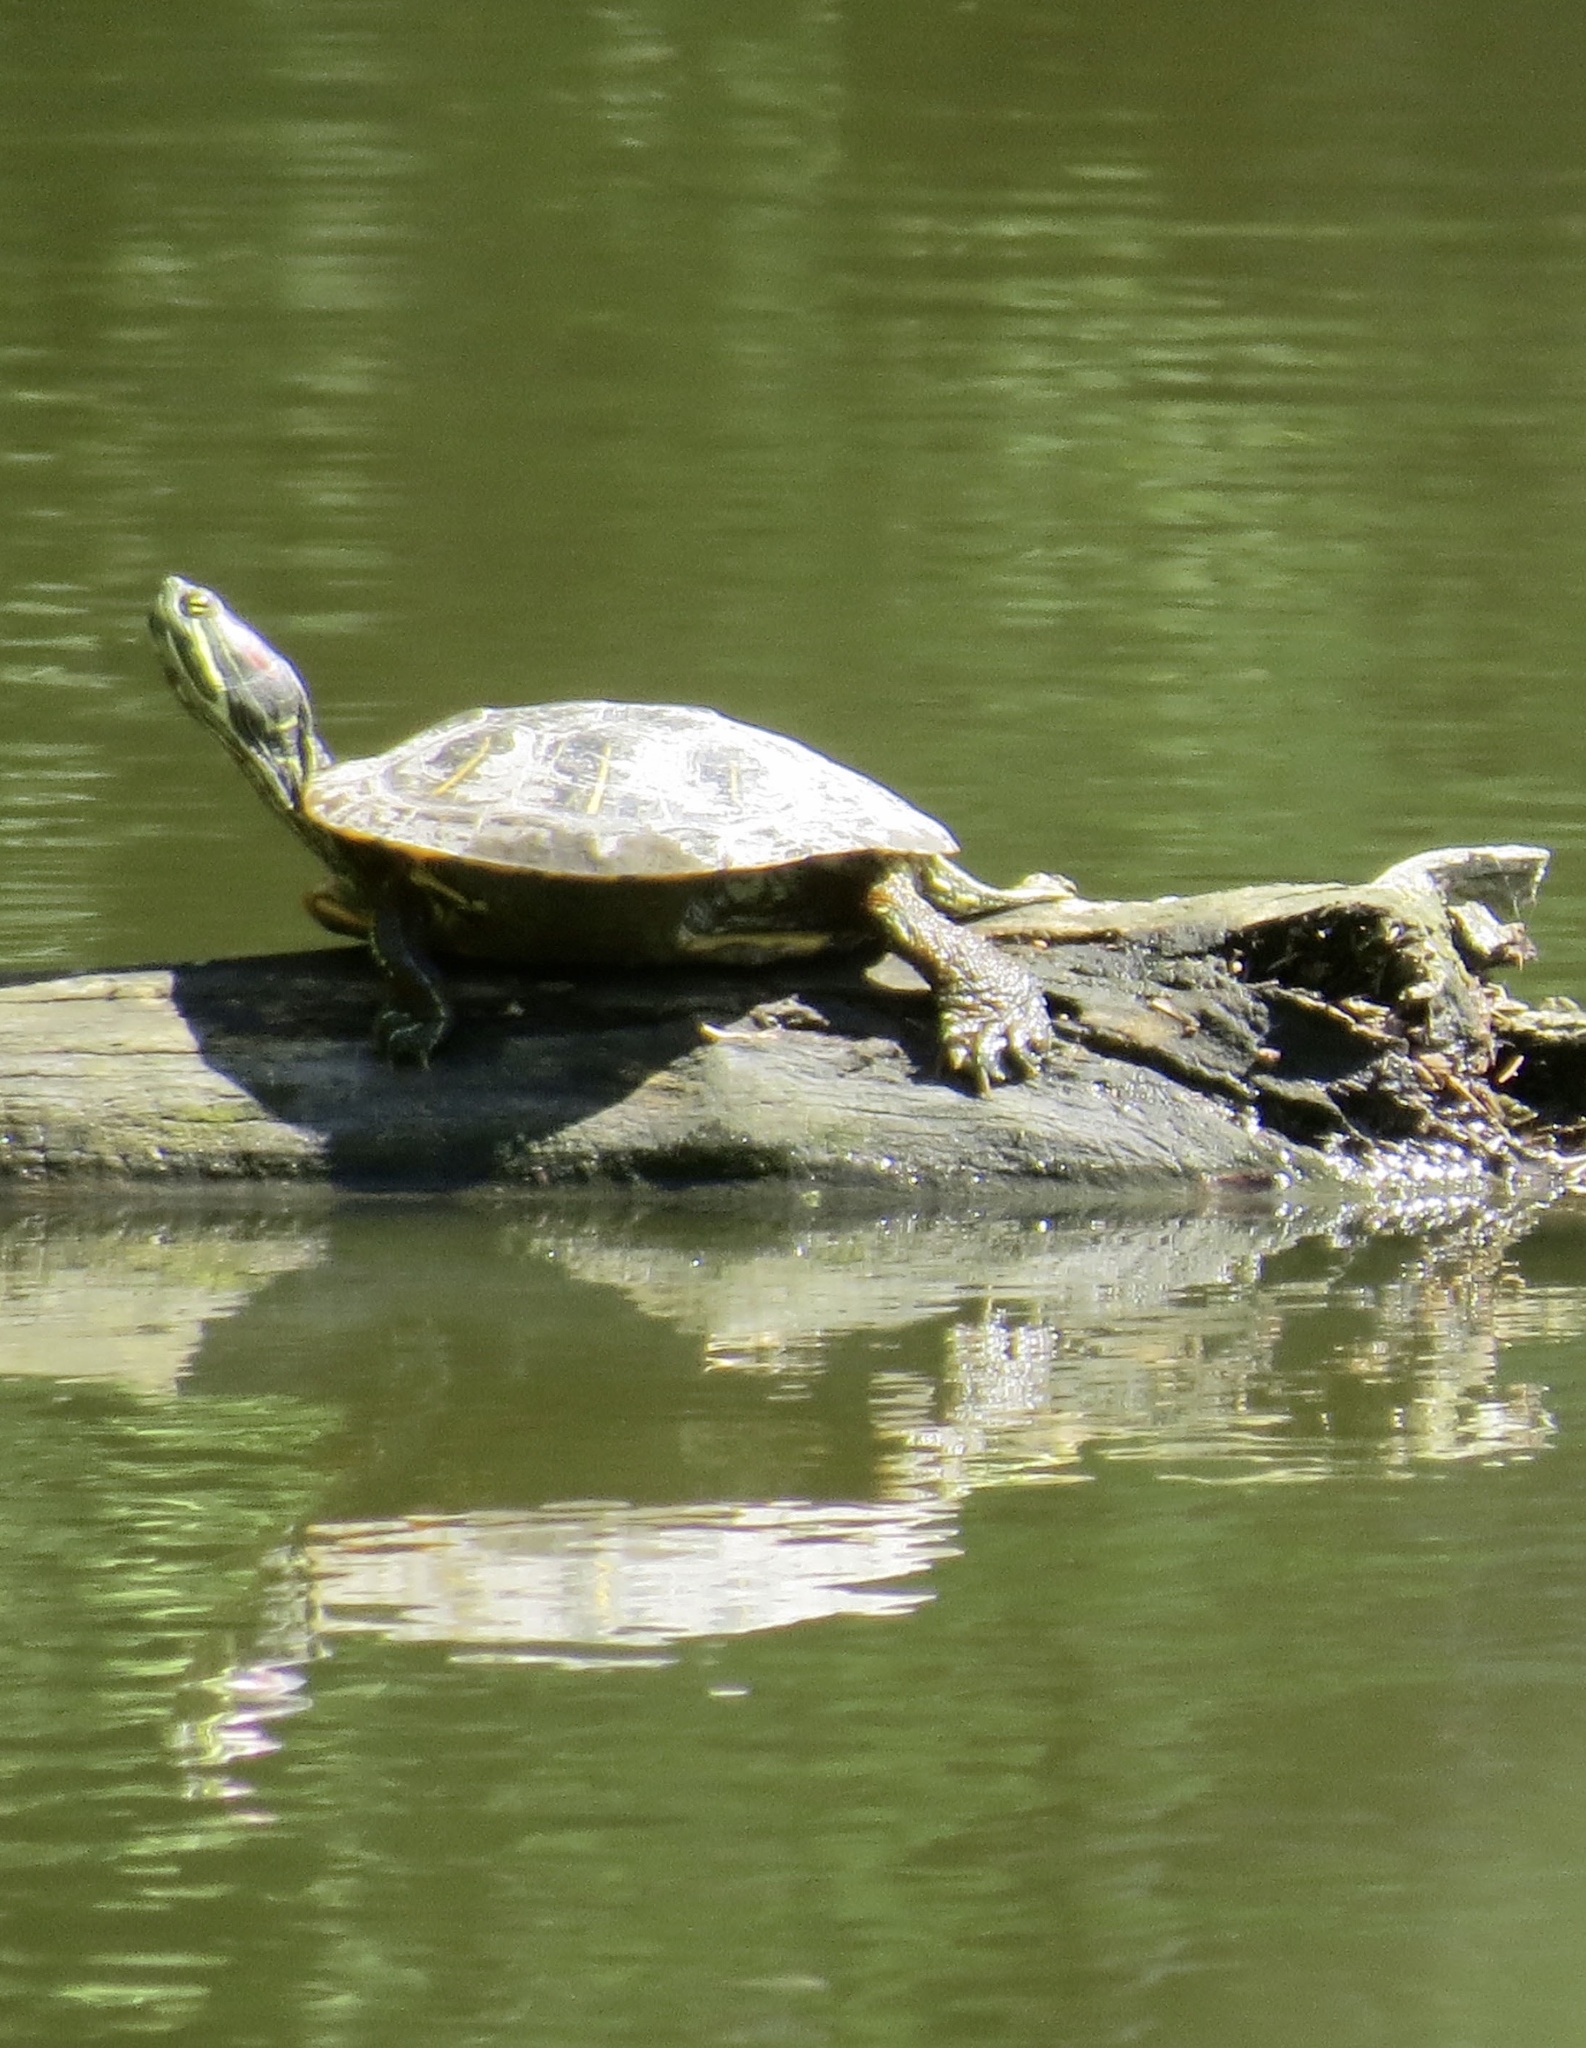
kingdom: Animalia
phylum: Chordata
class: Testudines
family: Emydidae
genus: Trachemys
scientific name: Trachemys scripta
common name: Slider
